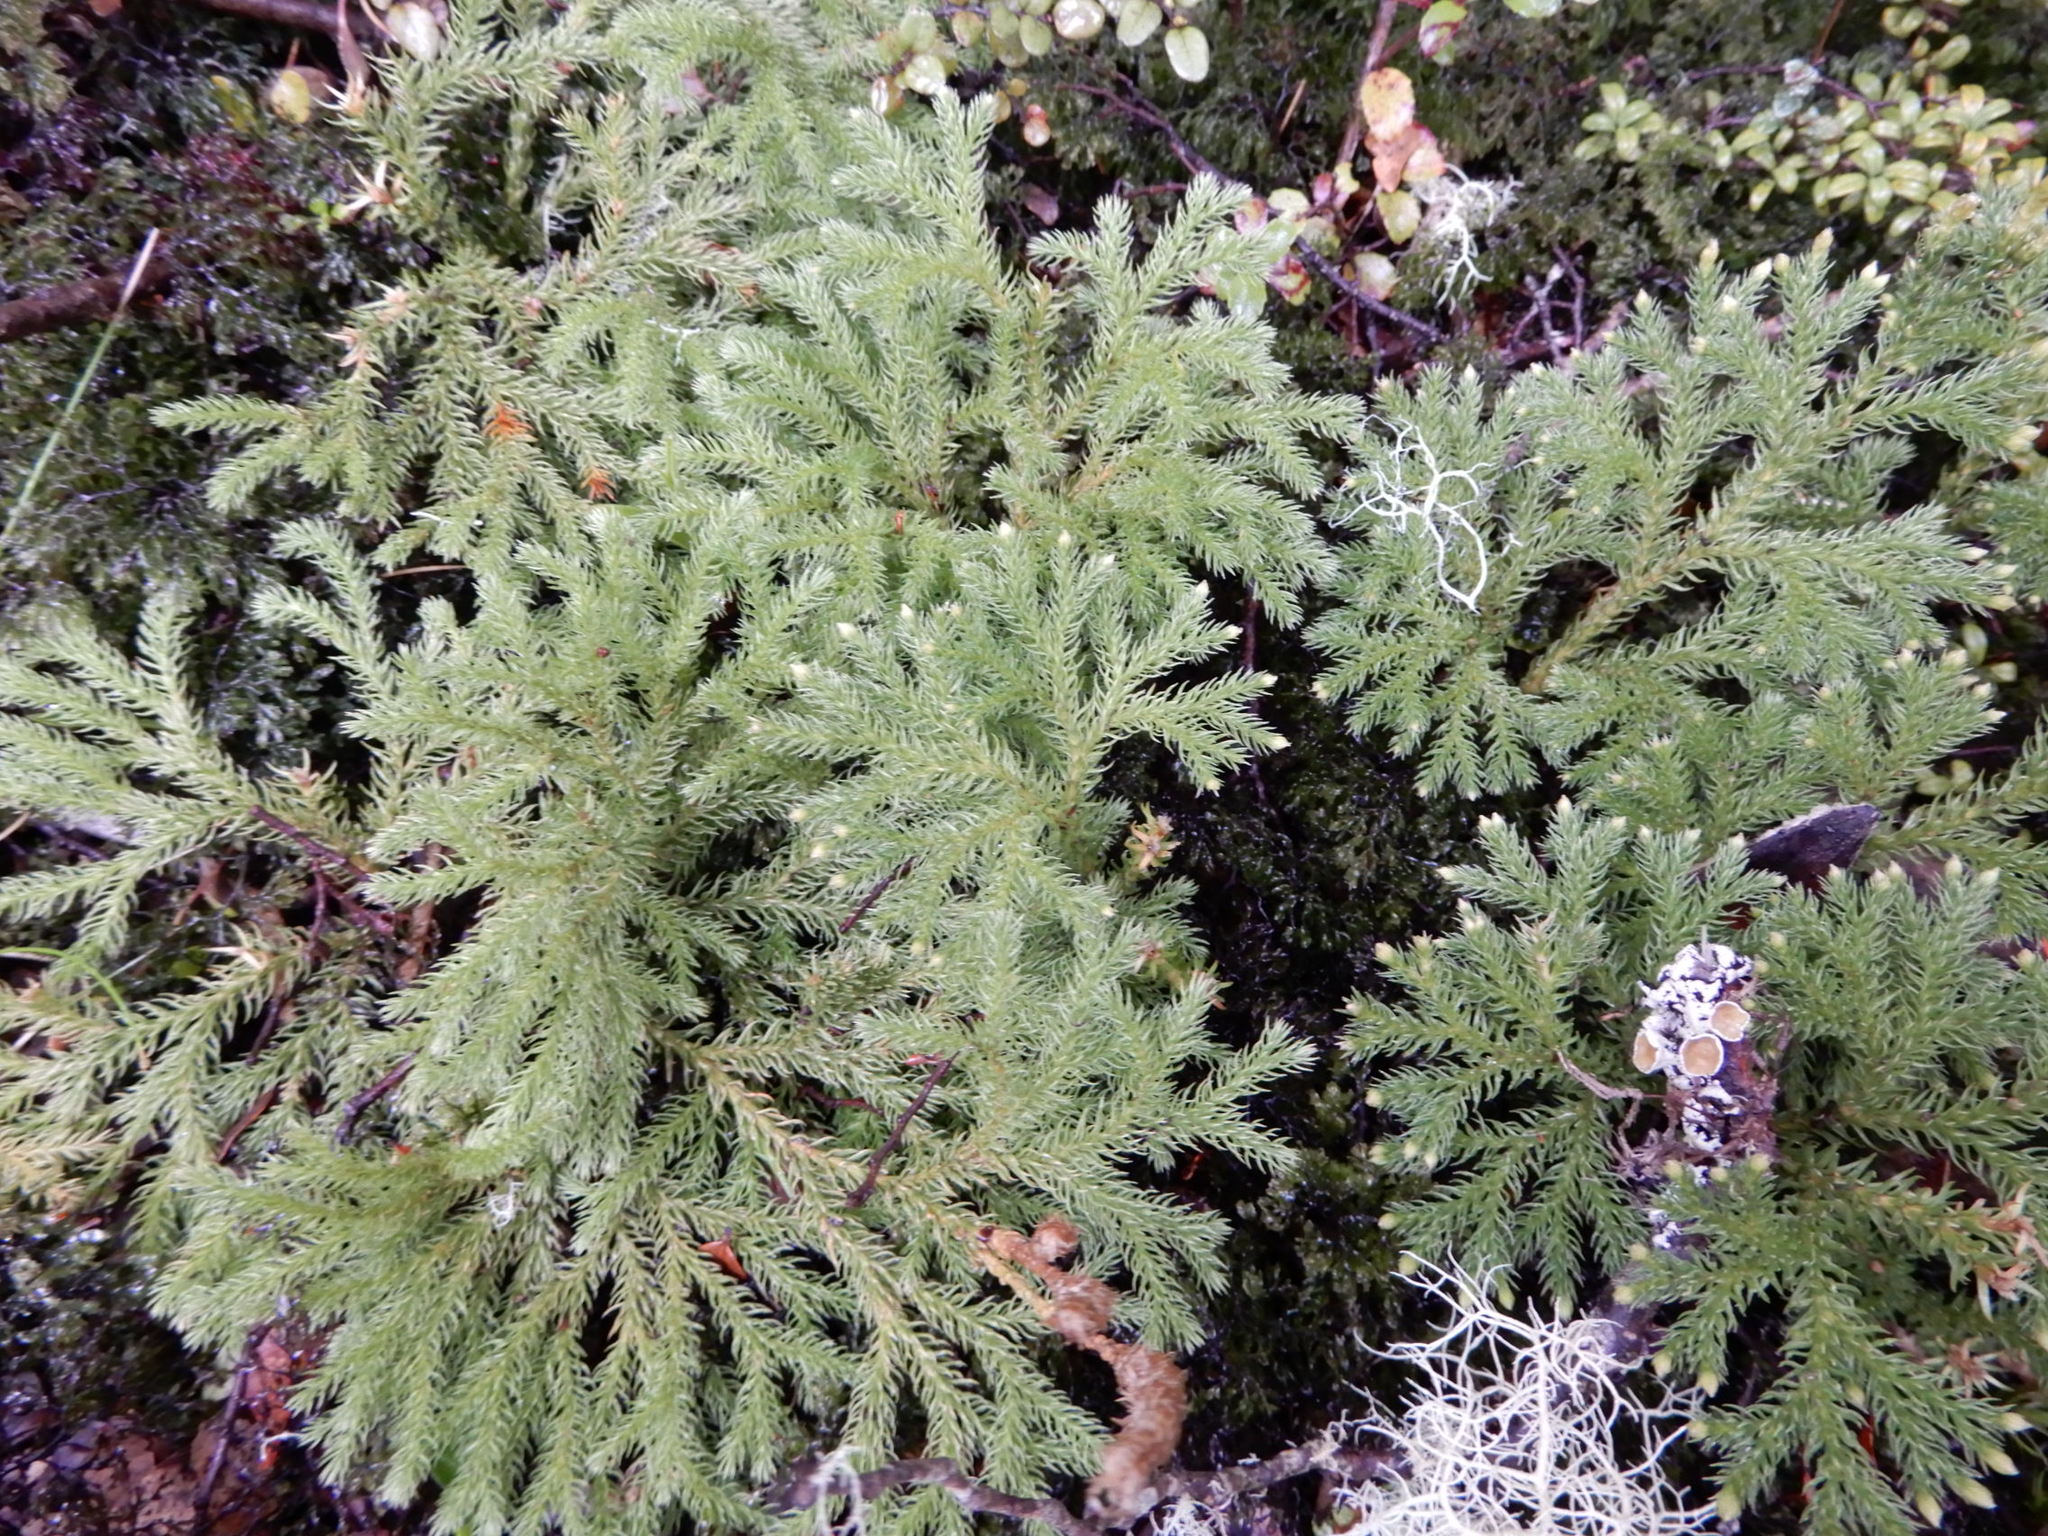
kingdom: Plantae
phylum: Tracheophyta
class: Lycopodiopsida
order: Lycopodiales
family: Lycopodiaceae
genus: Austrolycopodium
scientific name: Austrolycopodium fastigiatum
